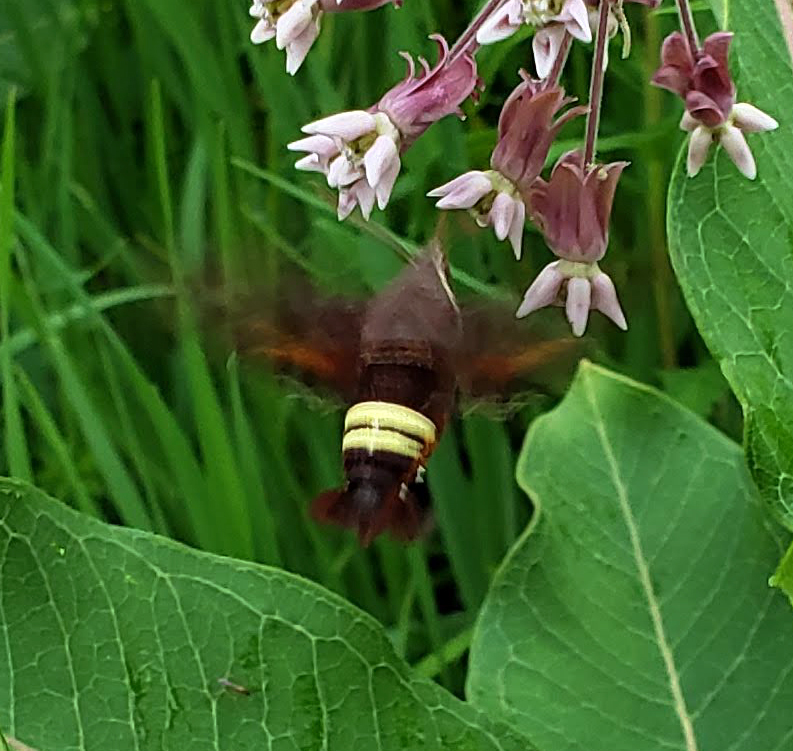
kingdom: Animalia
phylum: Arthropoda
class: Insecta
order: Lepidoptera
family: Sphingidae
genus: Amphion
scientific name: Amphion floridensis
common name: Nessus sphinx
